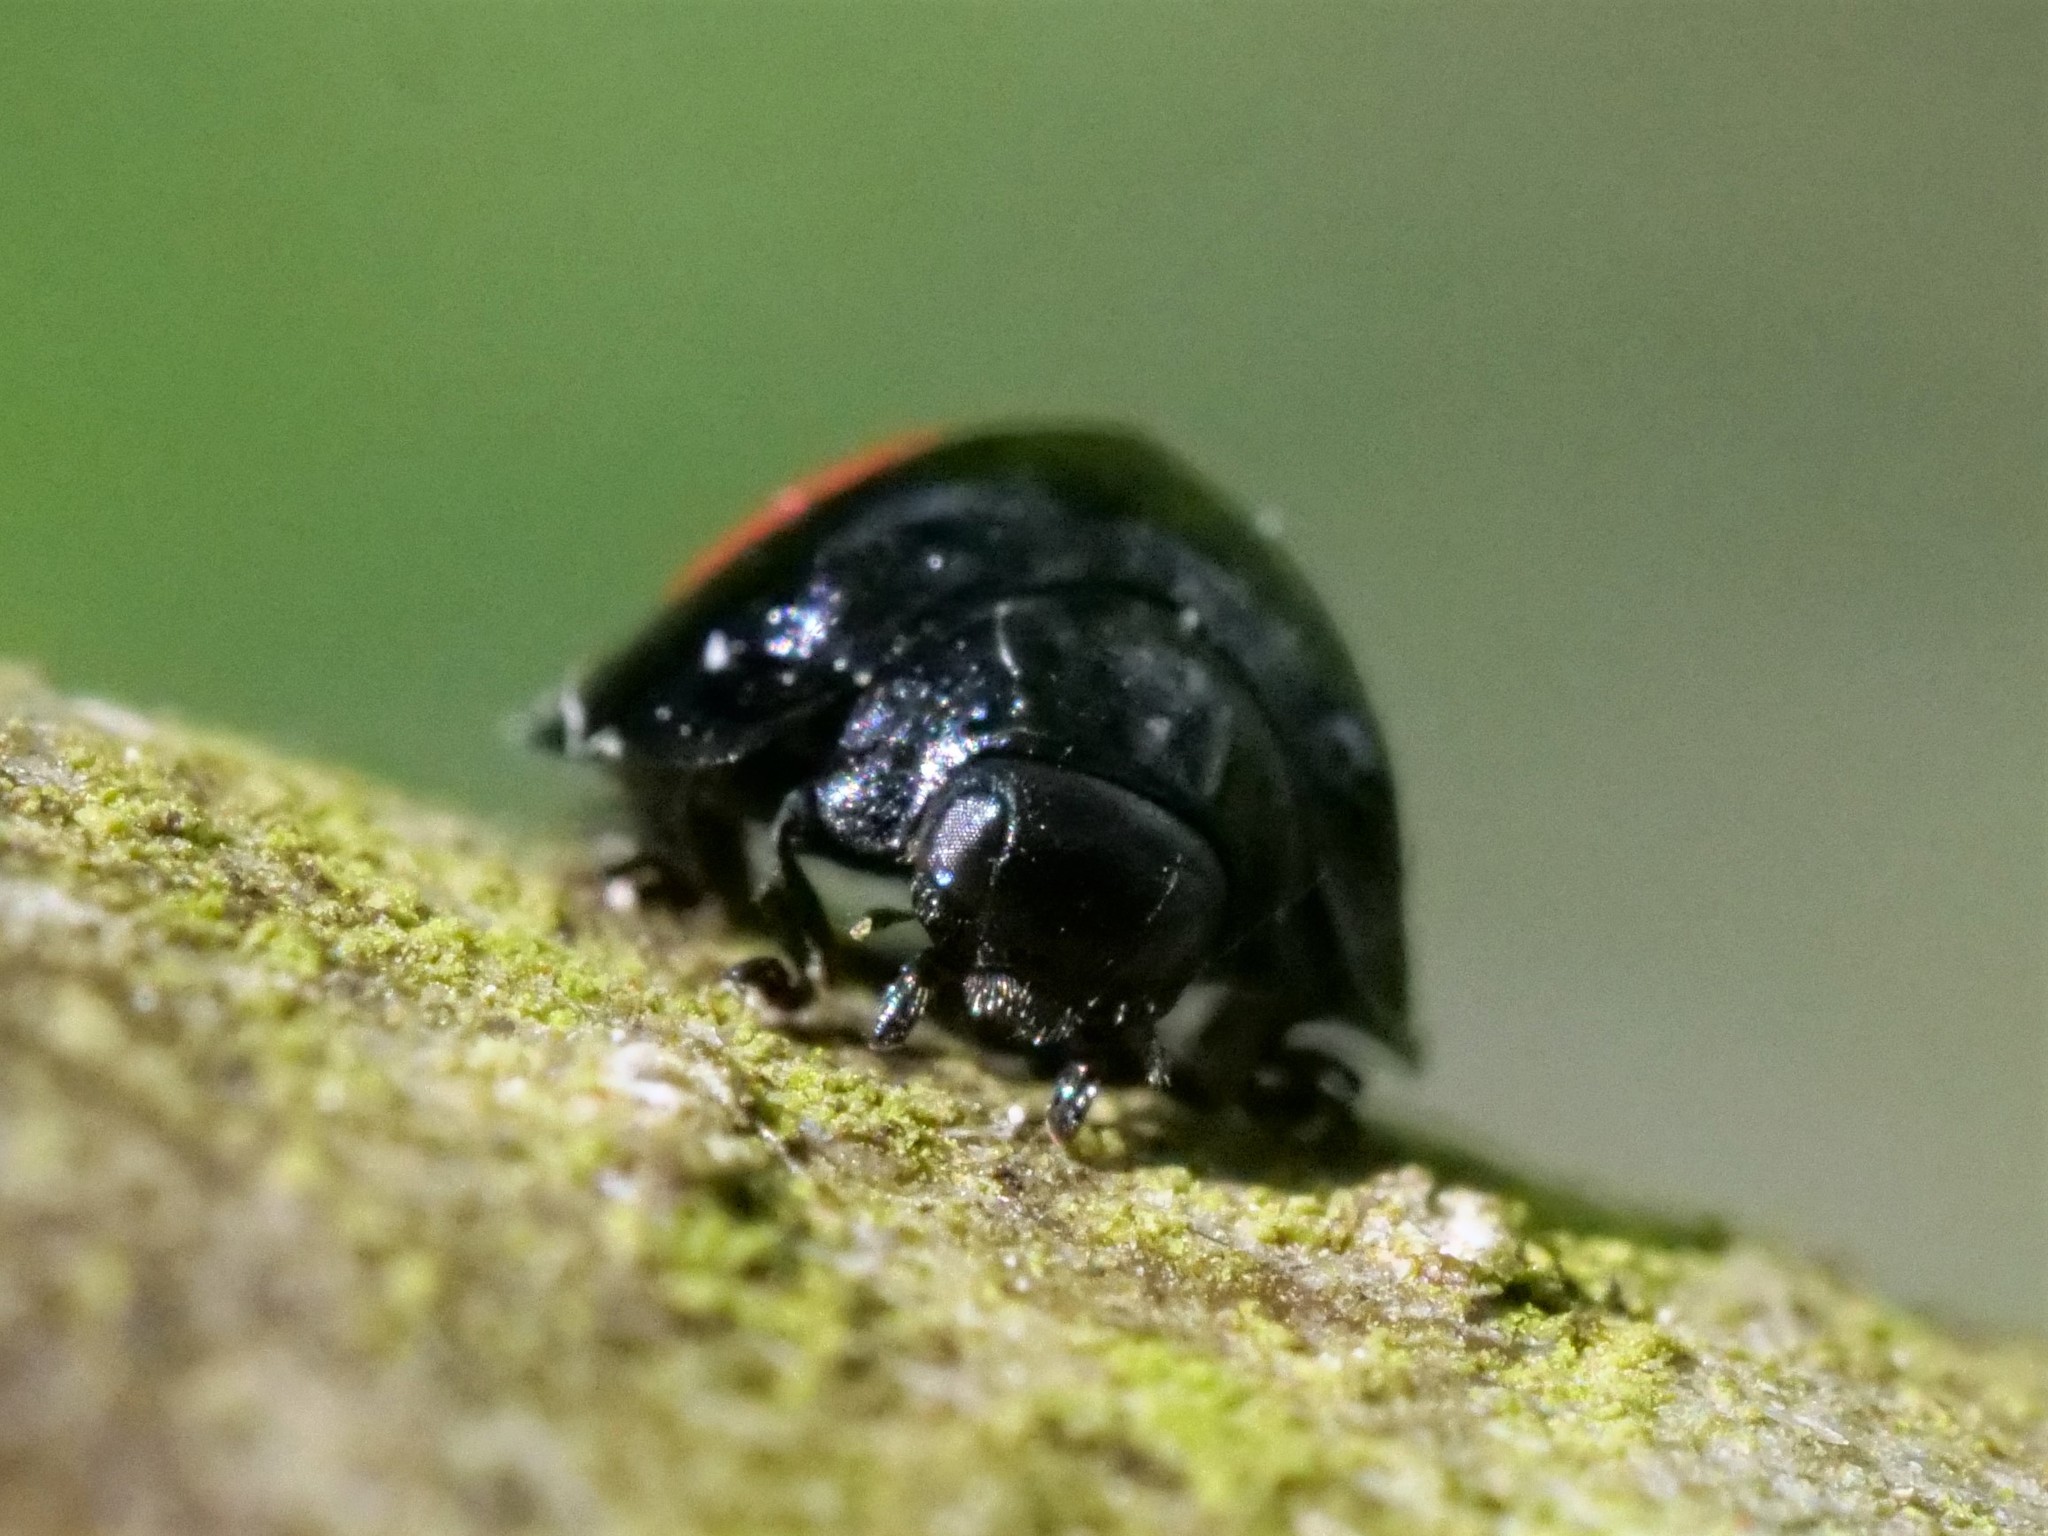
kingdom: Animalia
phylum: Arthropoda
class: Insecta
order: Coleoptera
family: Coccinellidae
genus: Chilocorus
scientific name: Chilocorus renipustulatus
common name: Kidney-spot ladybird
